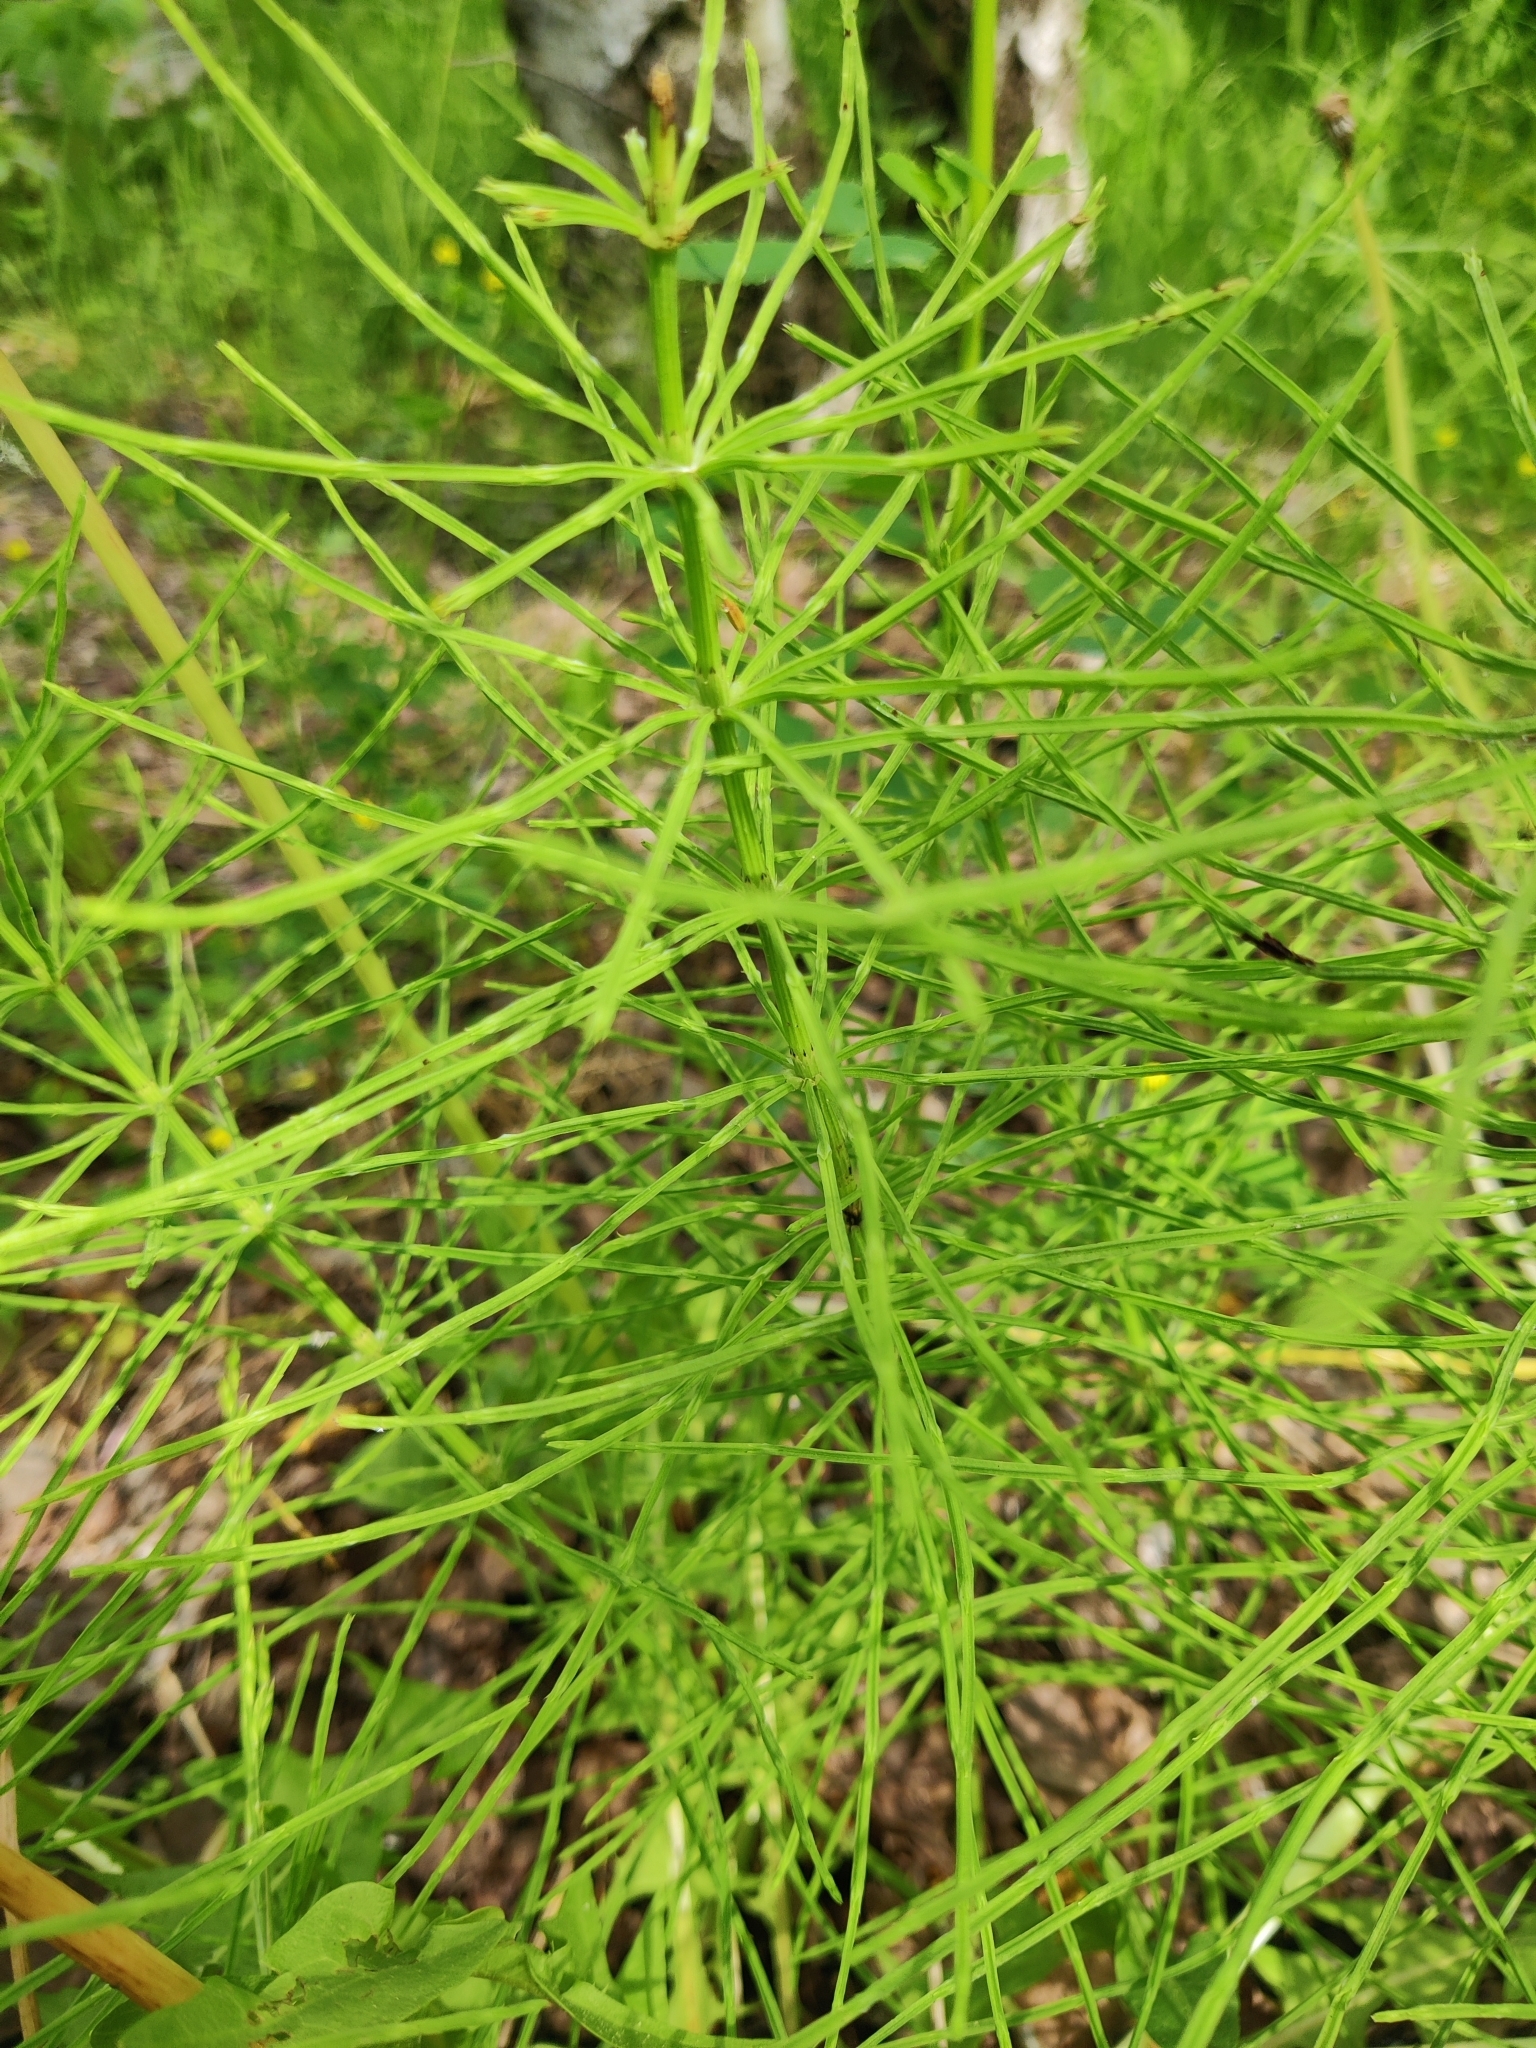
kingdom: Plantae
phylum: Tracheophyta
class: Polypodiopsida
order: Equisetales
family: Equisetaceae
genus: Equisetum
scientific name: Equisetum arvense
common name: Field horsetail
